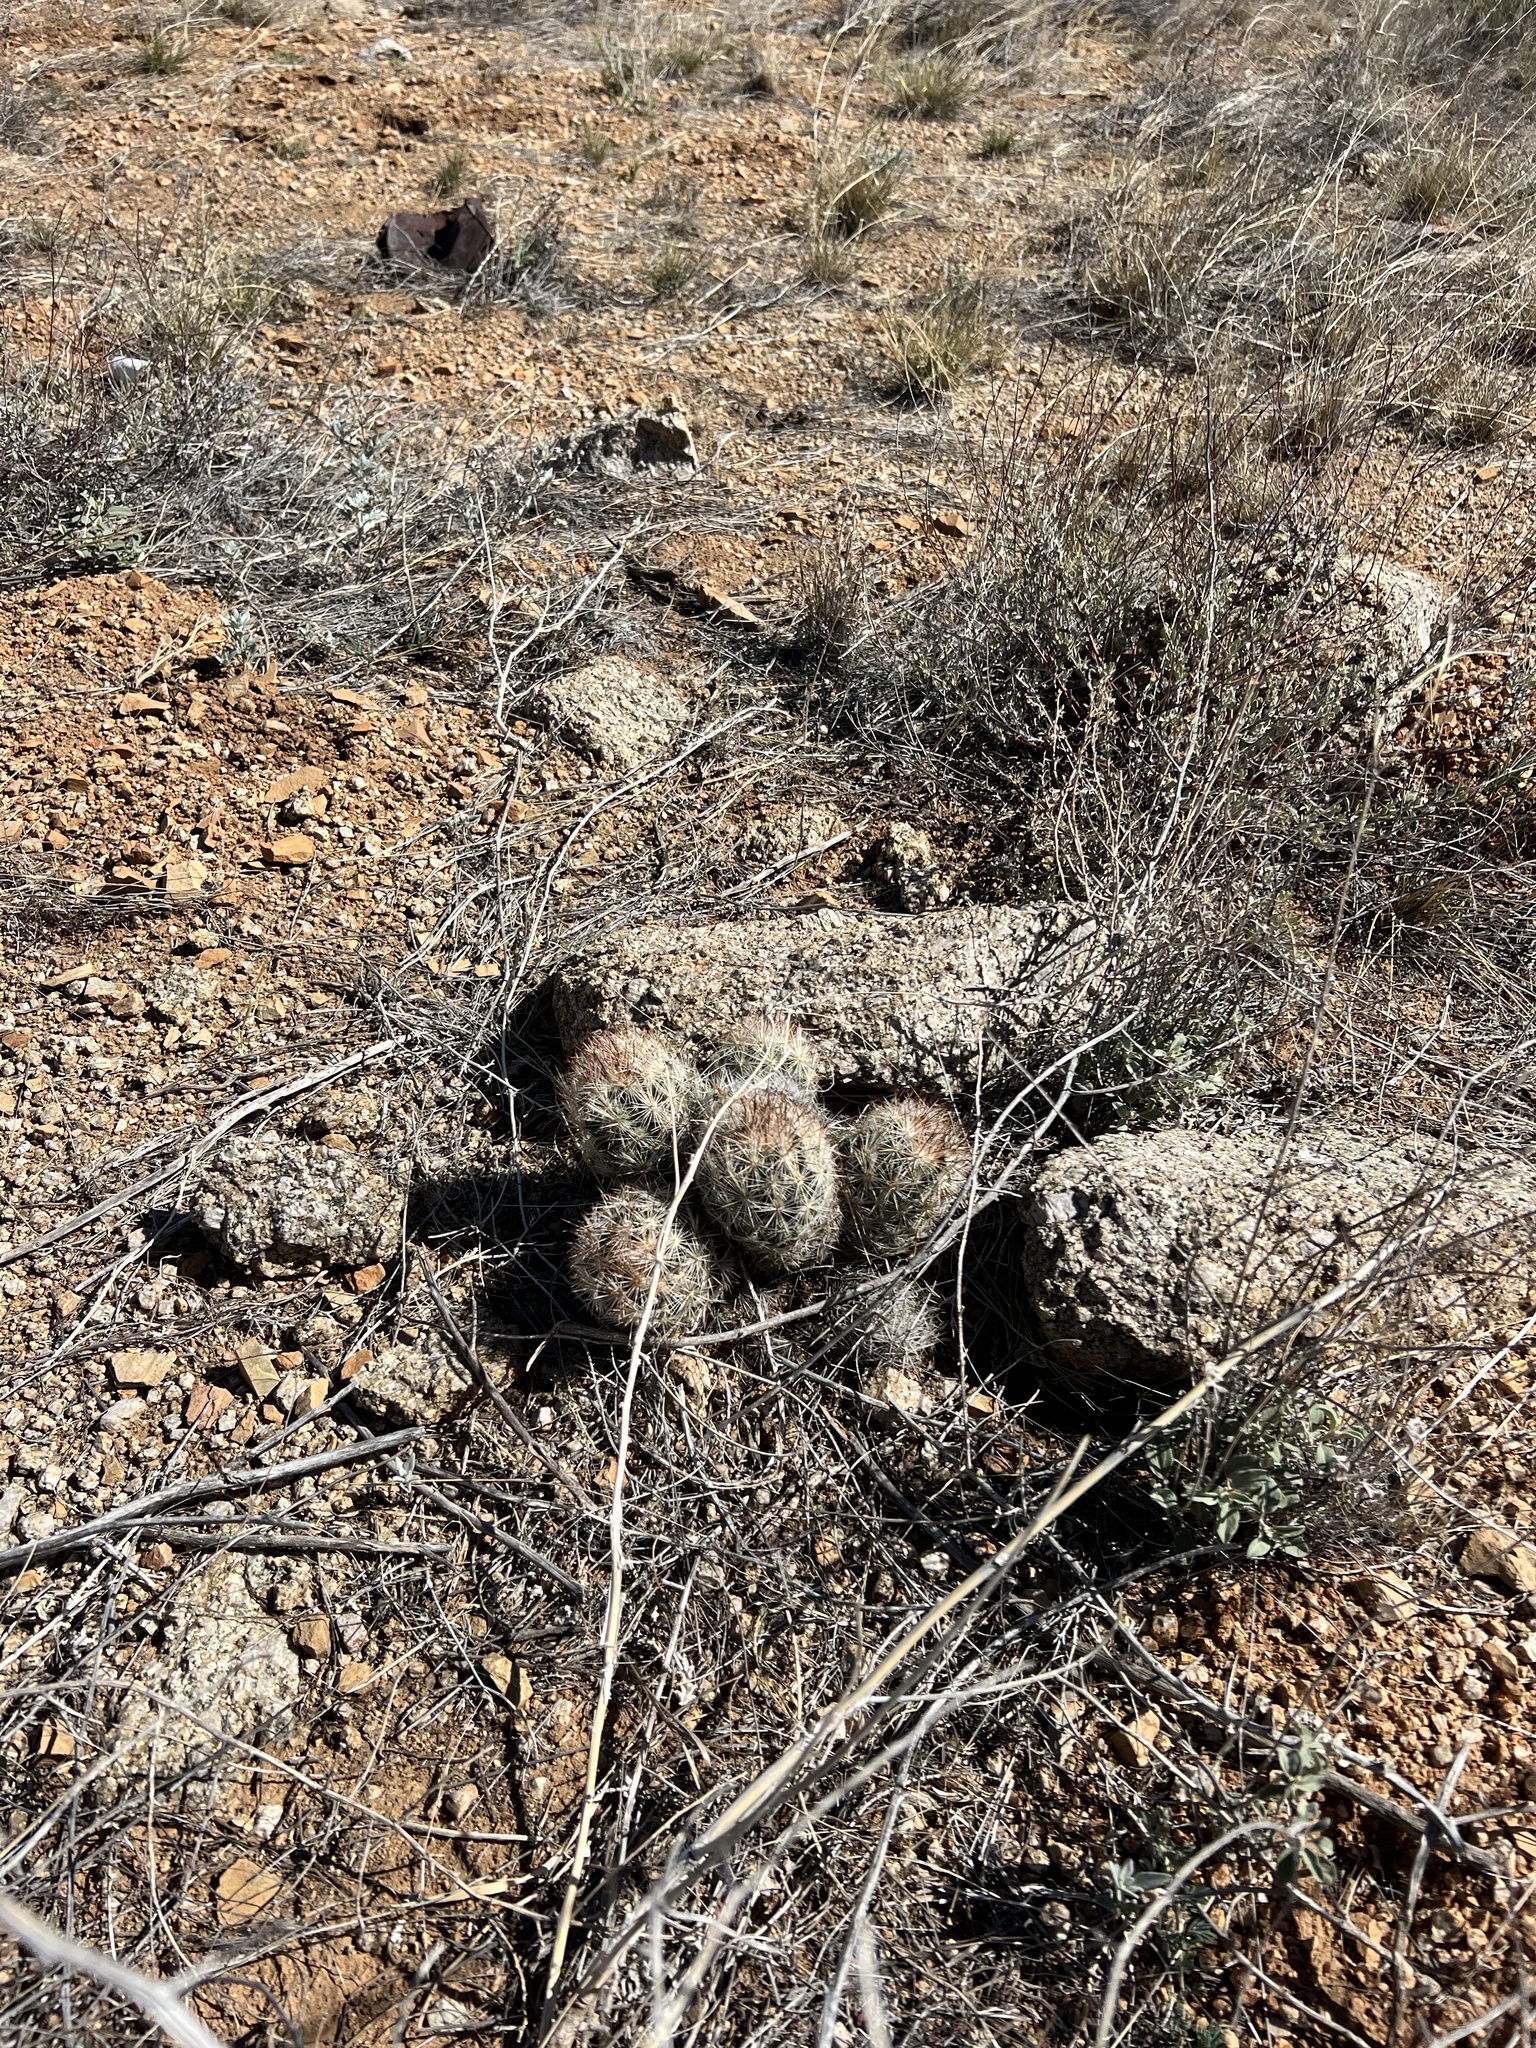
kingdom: Plantae
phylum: Tracheophyta
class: Magnoliopsida
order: Caryophyllales
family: Cactaceae
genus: Pelecyphora
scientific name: Pelecyphora vivipara
